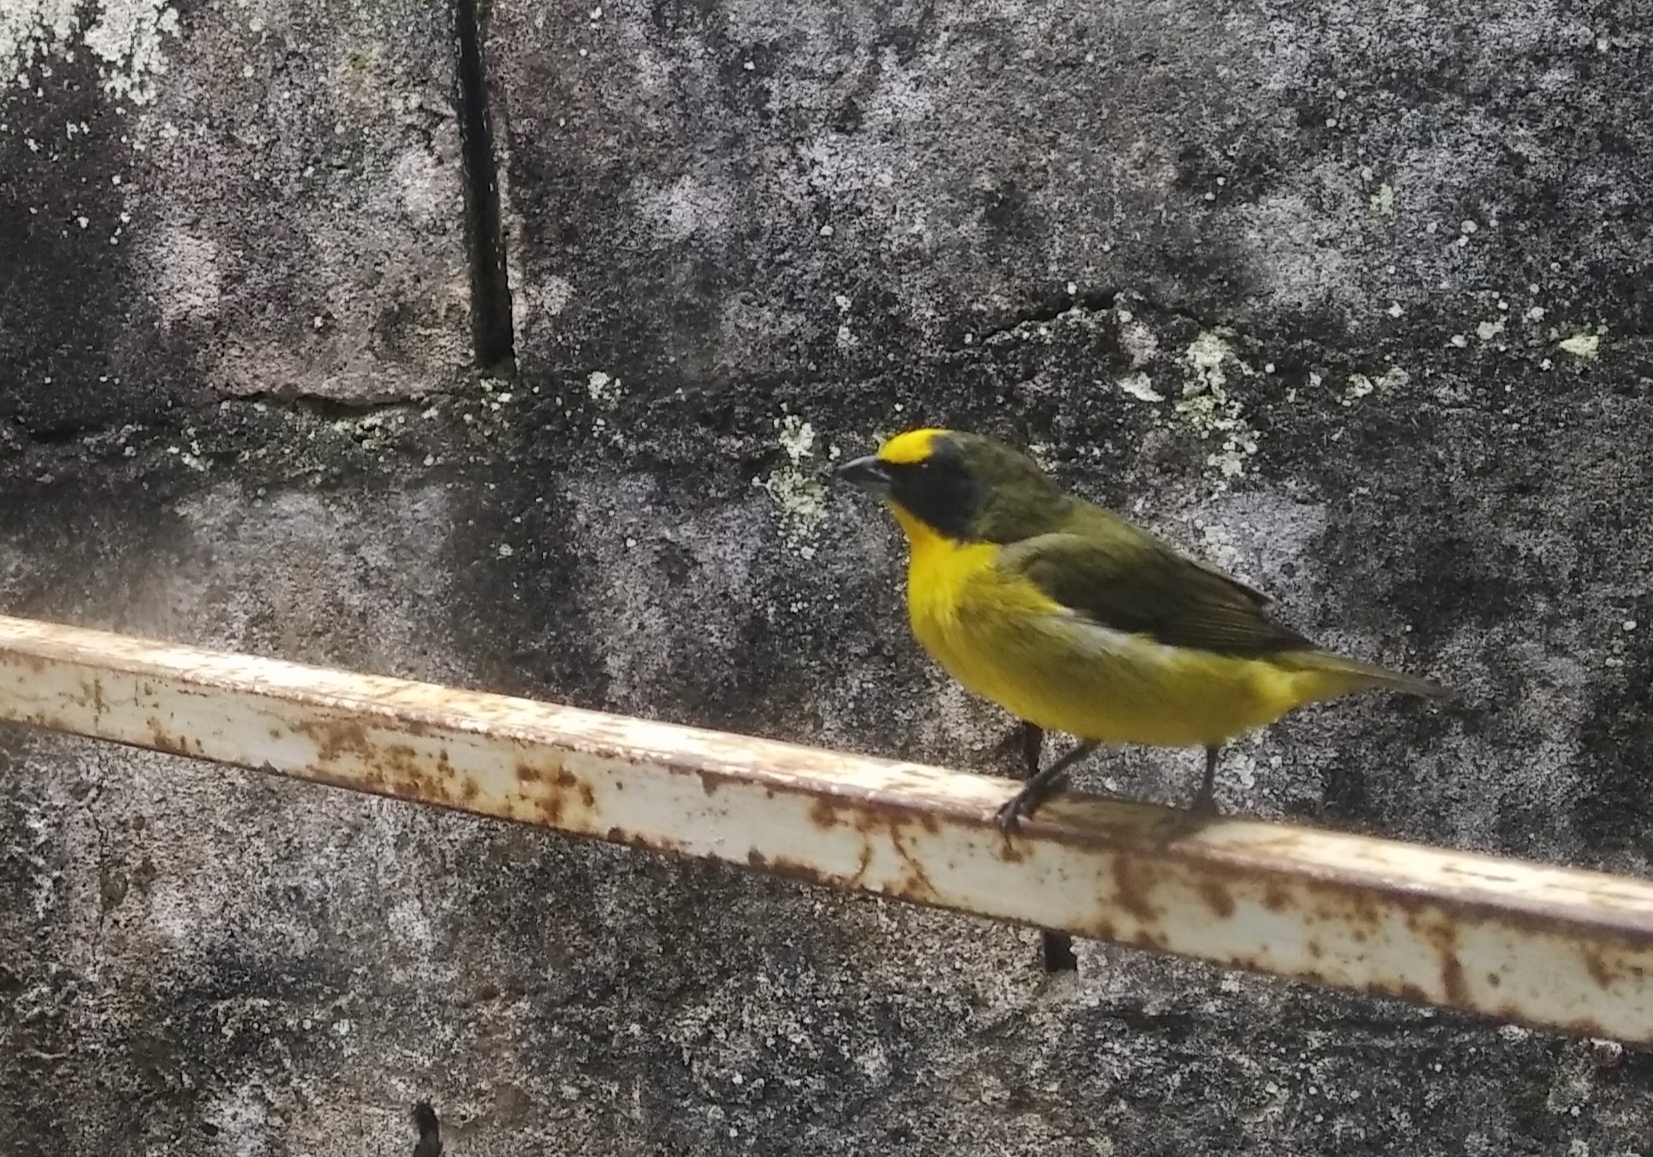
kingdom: Animalia
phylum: Chordata
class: Aves
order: Passeriformes
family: Fringillidae
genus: Euphonia
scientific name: Euphonia laniirostris
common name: Thick-billed euphonia
